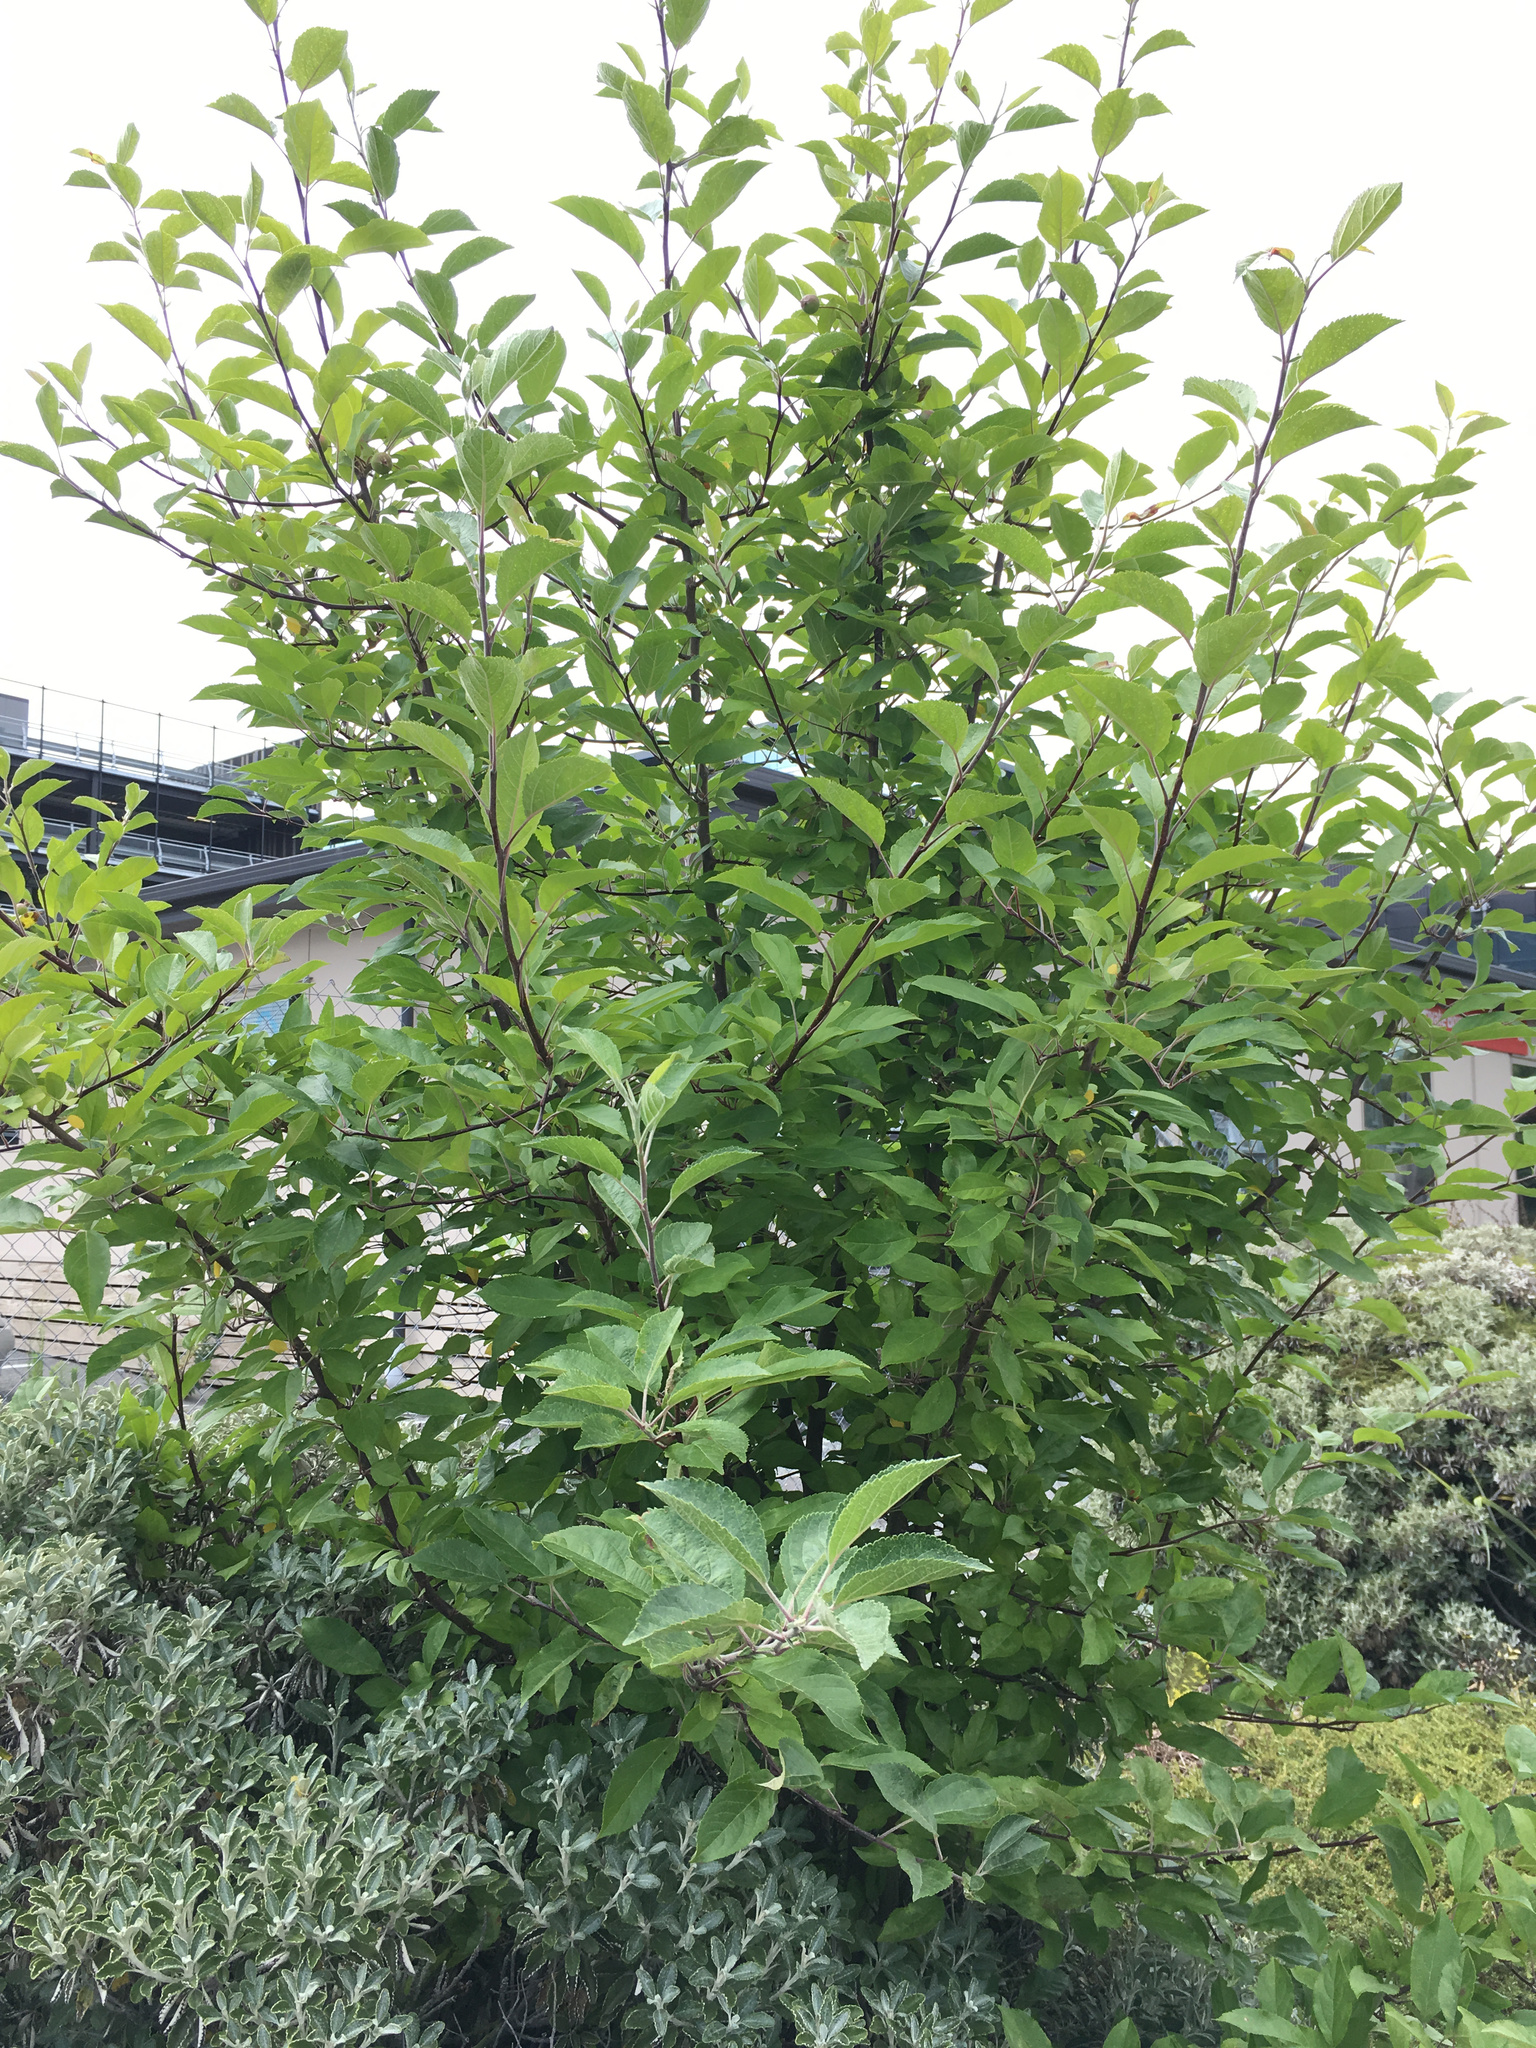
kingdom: Plantae
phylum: Tracheophyta
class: Magnoliopsida
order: Rosales
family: Rosaceae
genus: Malus
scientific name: Malus domestica
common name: Apple
